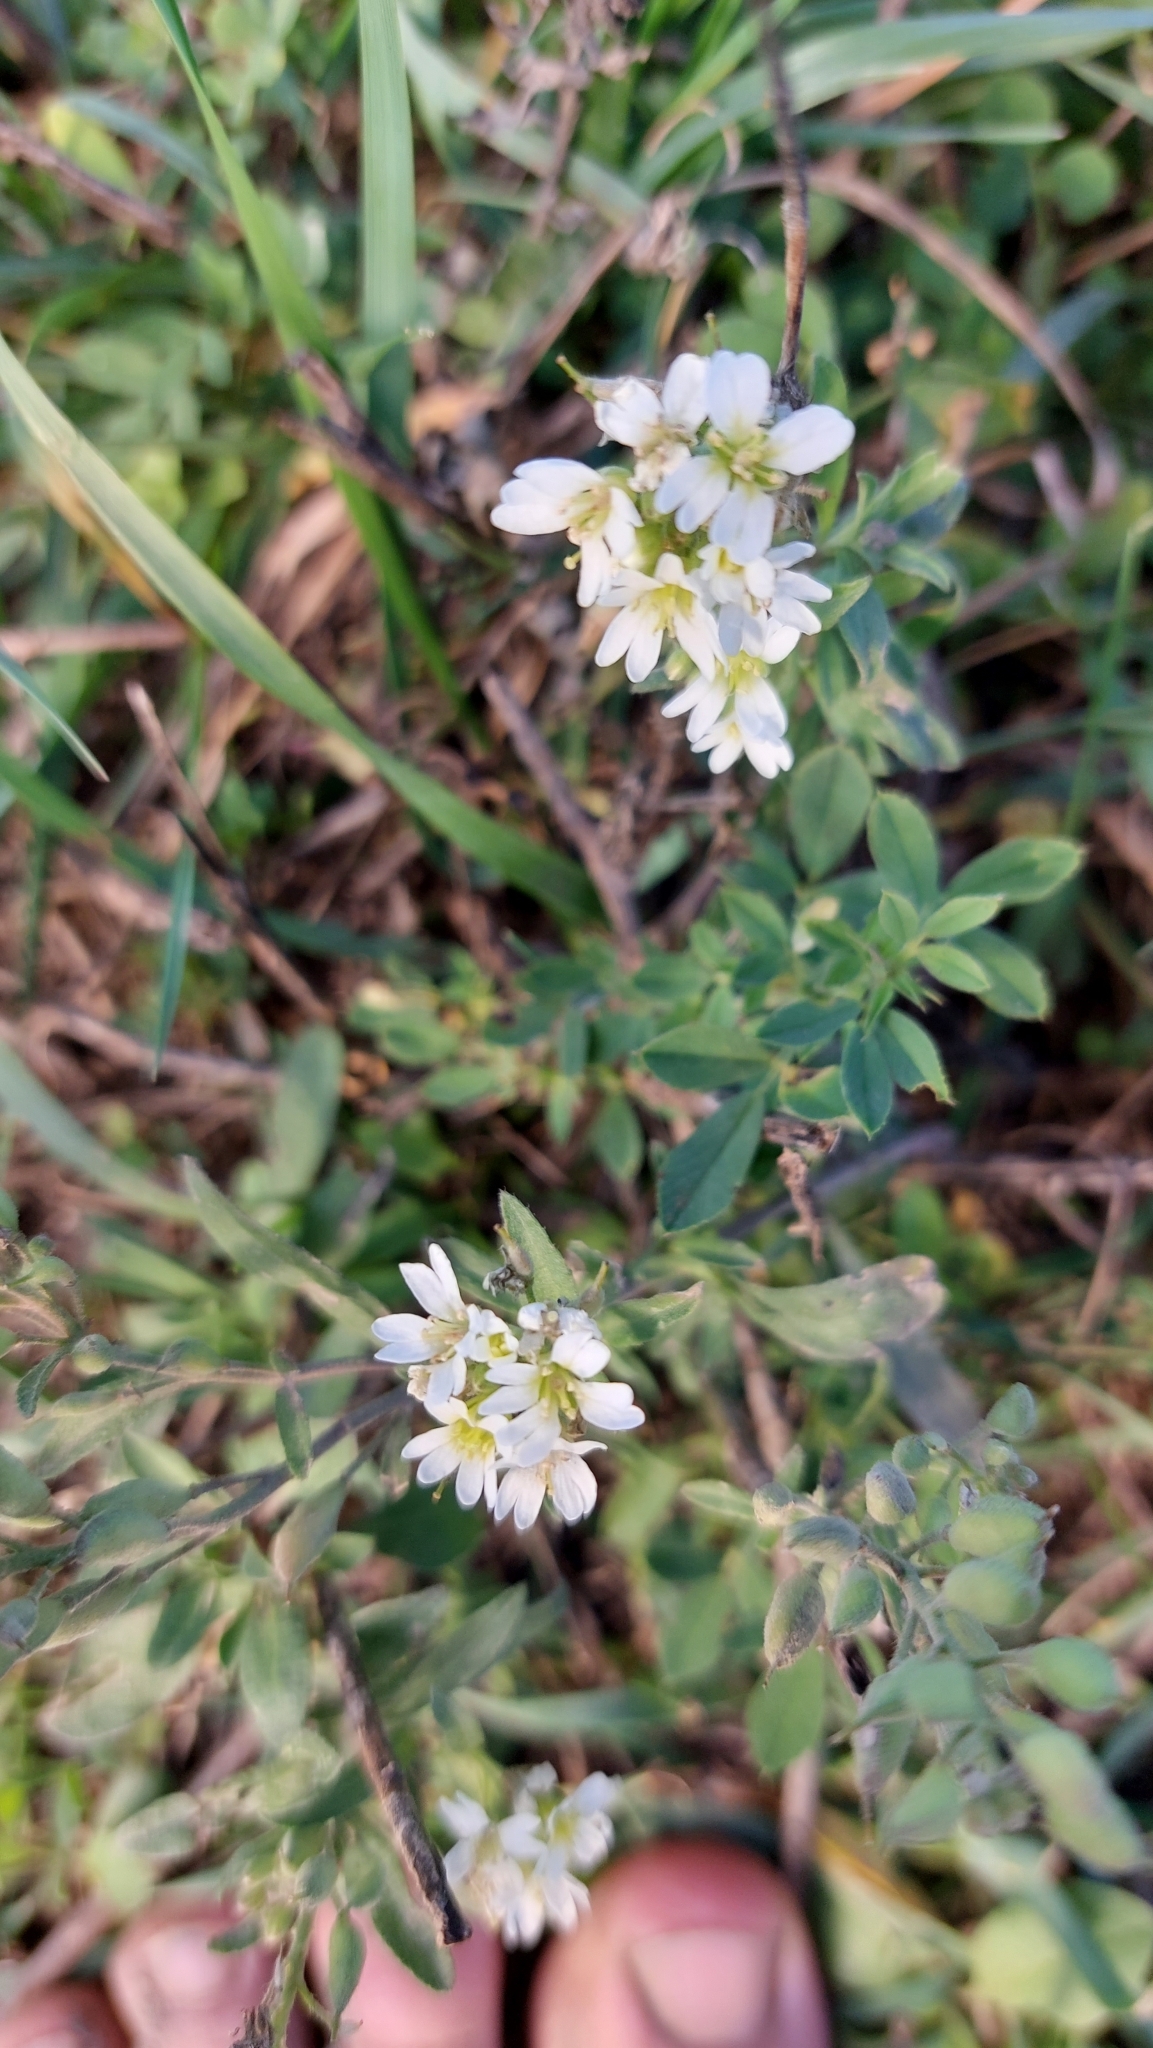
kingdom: Plantae
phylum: Tracheophyta
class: Magnoliopsida
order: Brassicales
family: Brassicaceae
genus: Berteroa
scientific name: Berteroa incana
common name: Hoary alison
